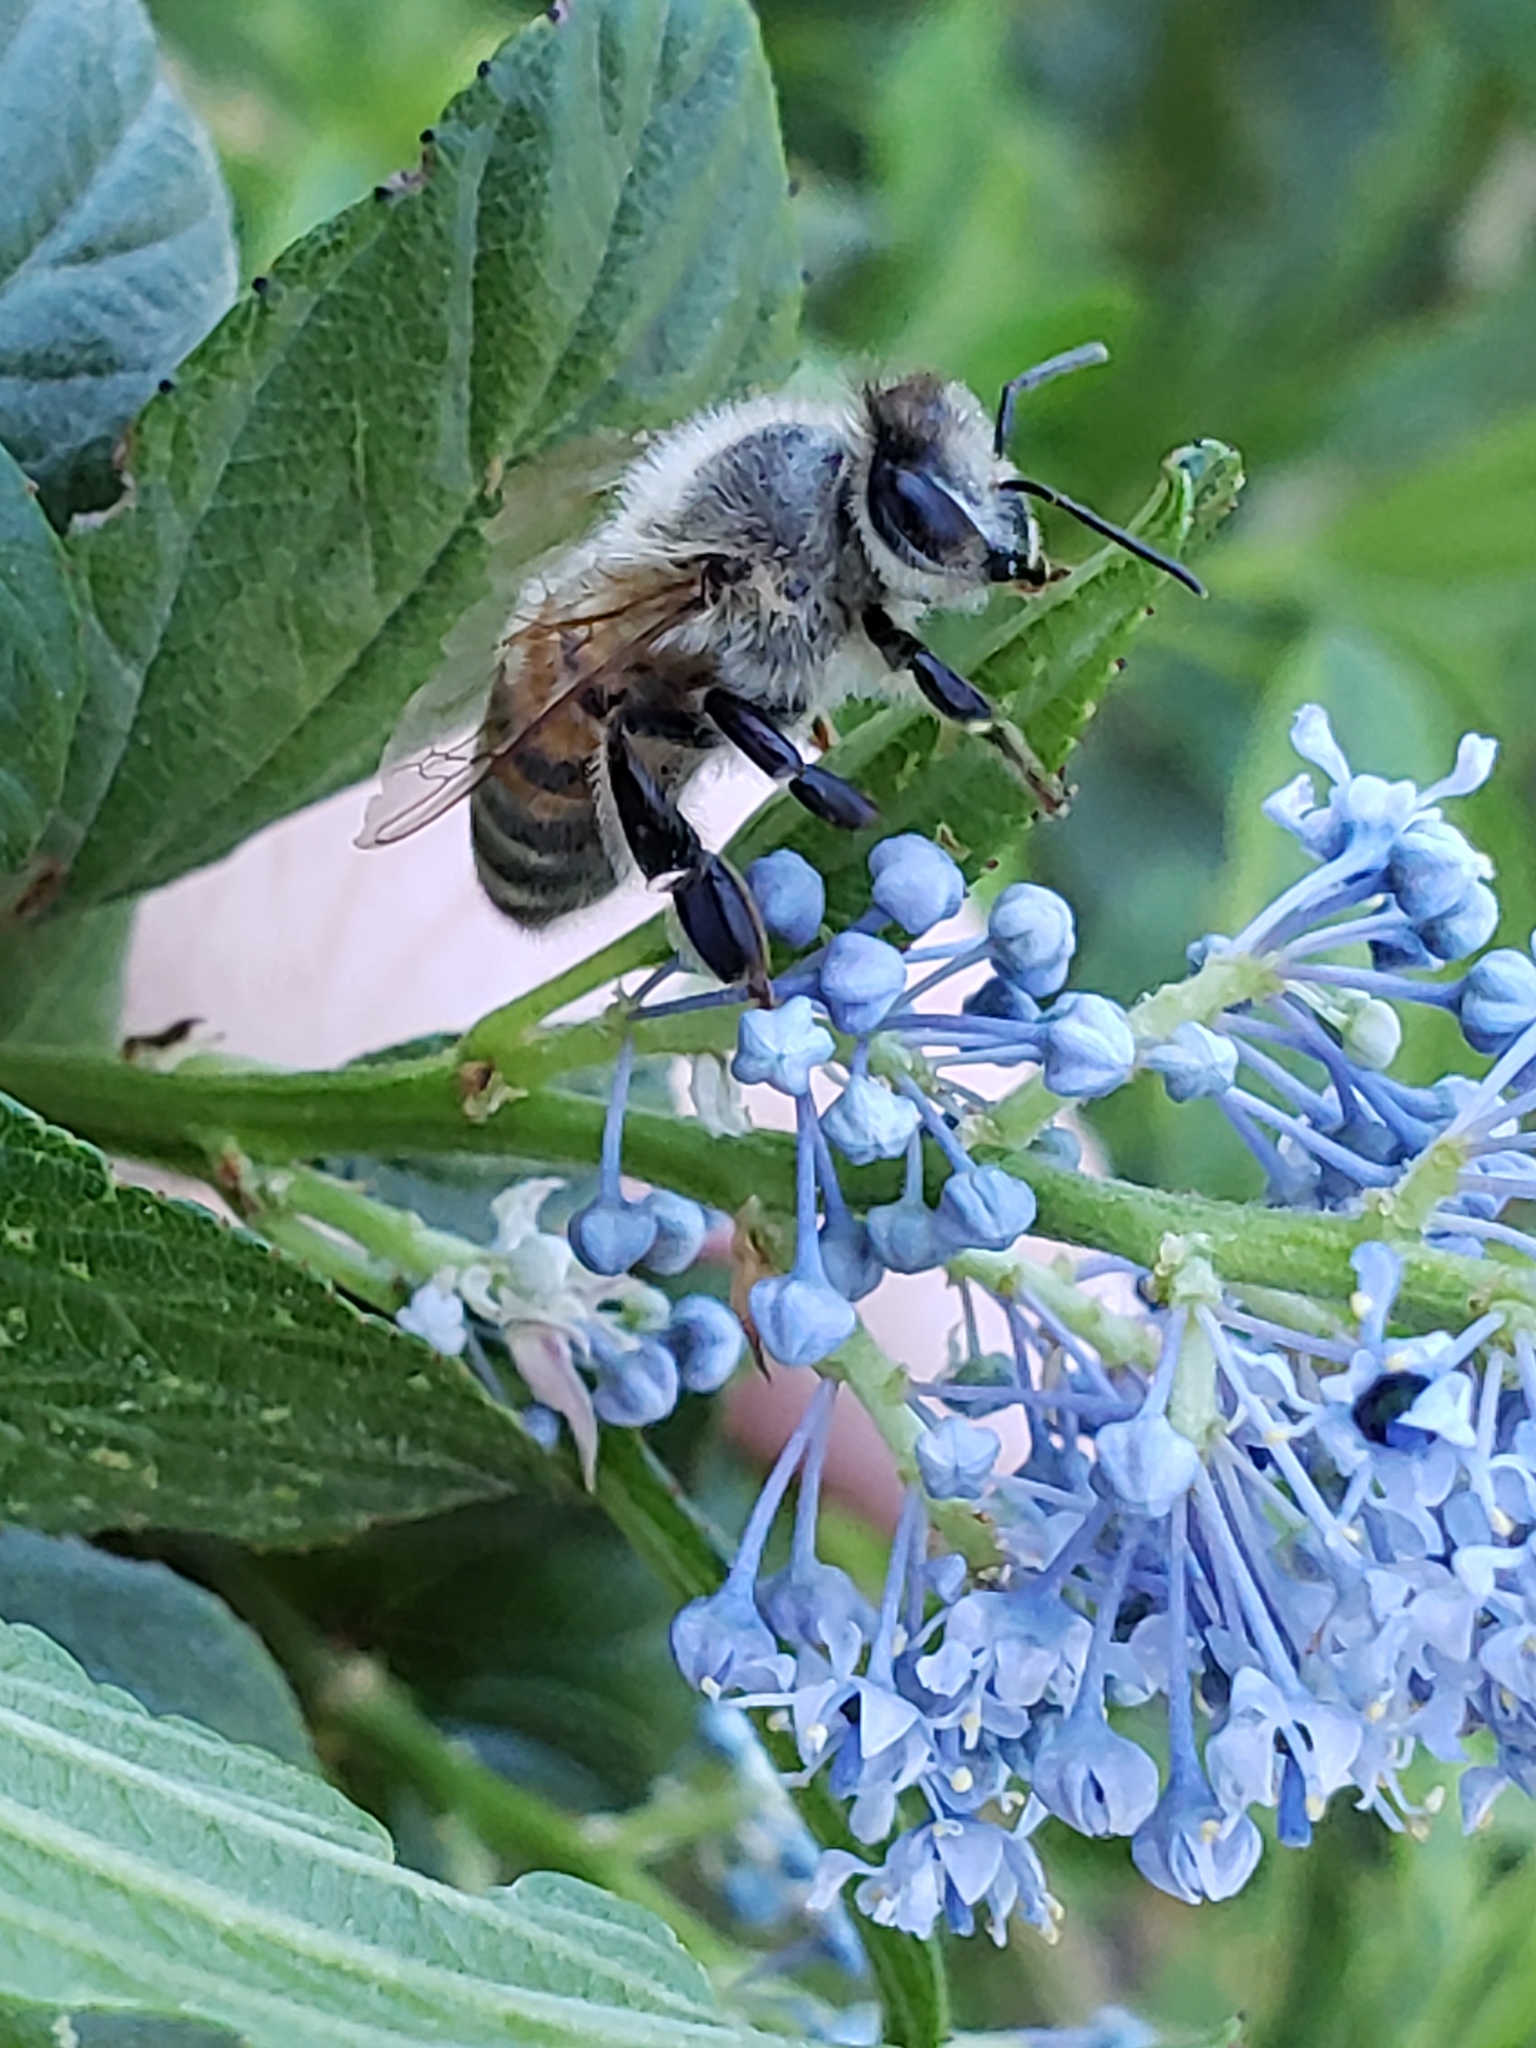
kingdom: Animalia
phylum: Arthropoda
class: Insecta
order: Hymenoptera
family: Apidae
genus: Apis
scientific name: Apis mellifera
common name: Honey bee
